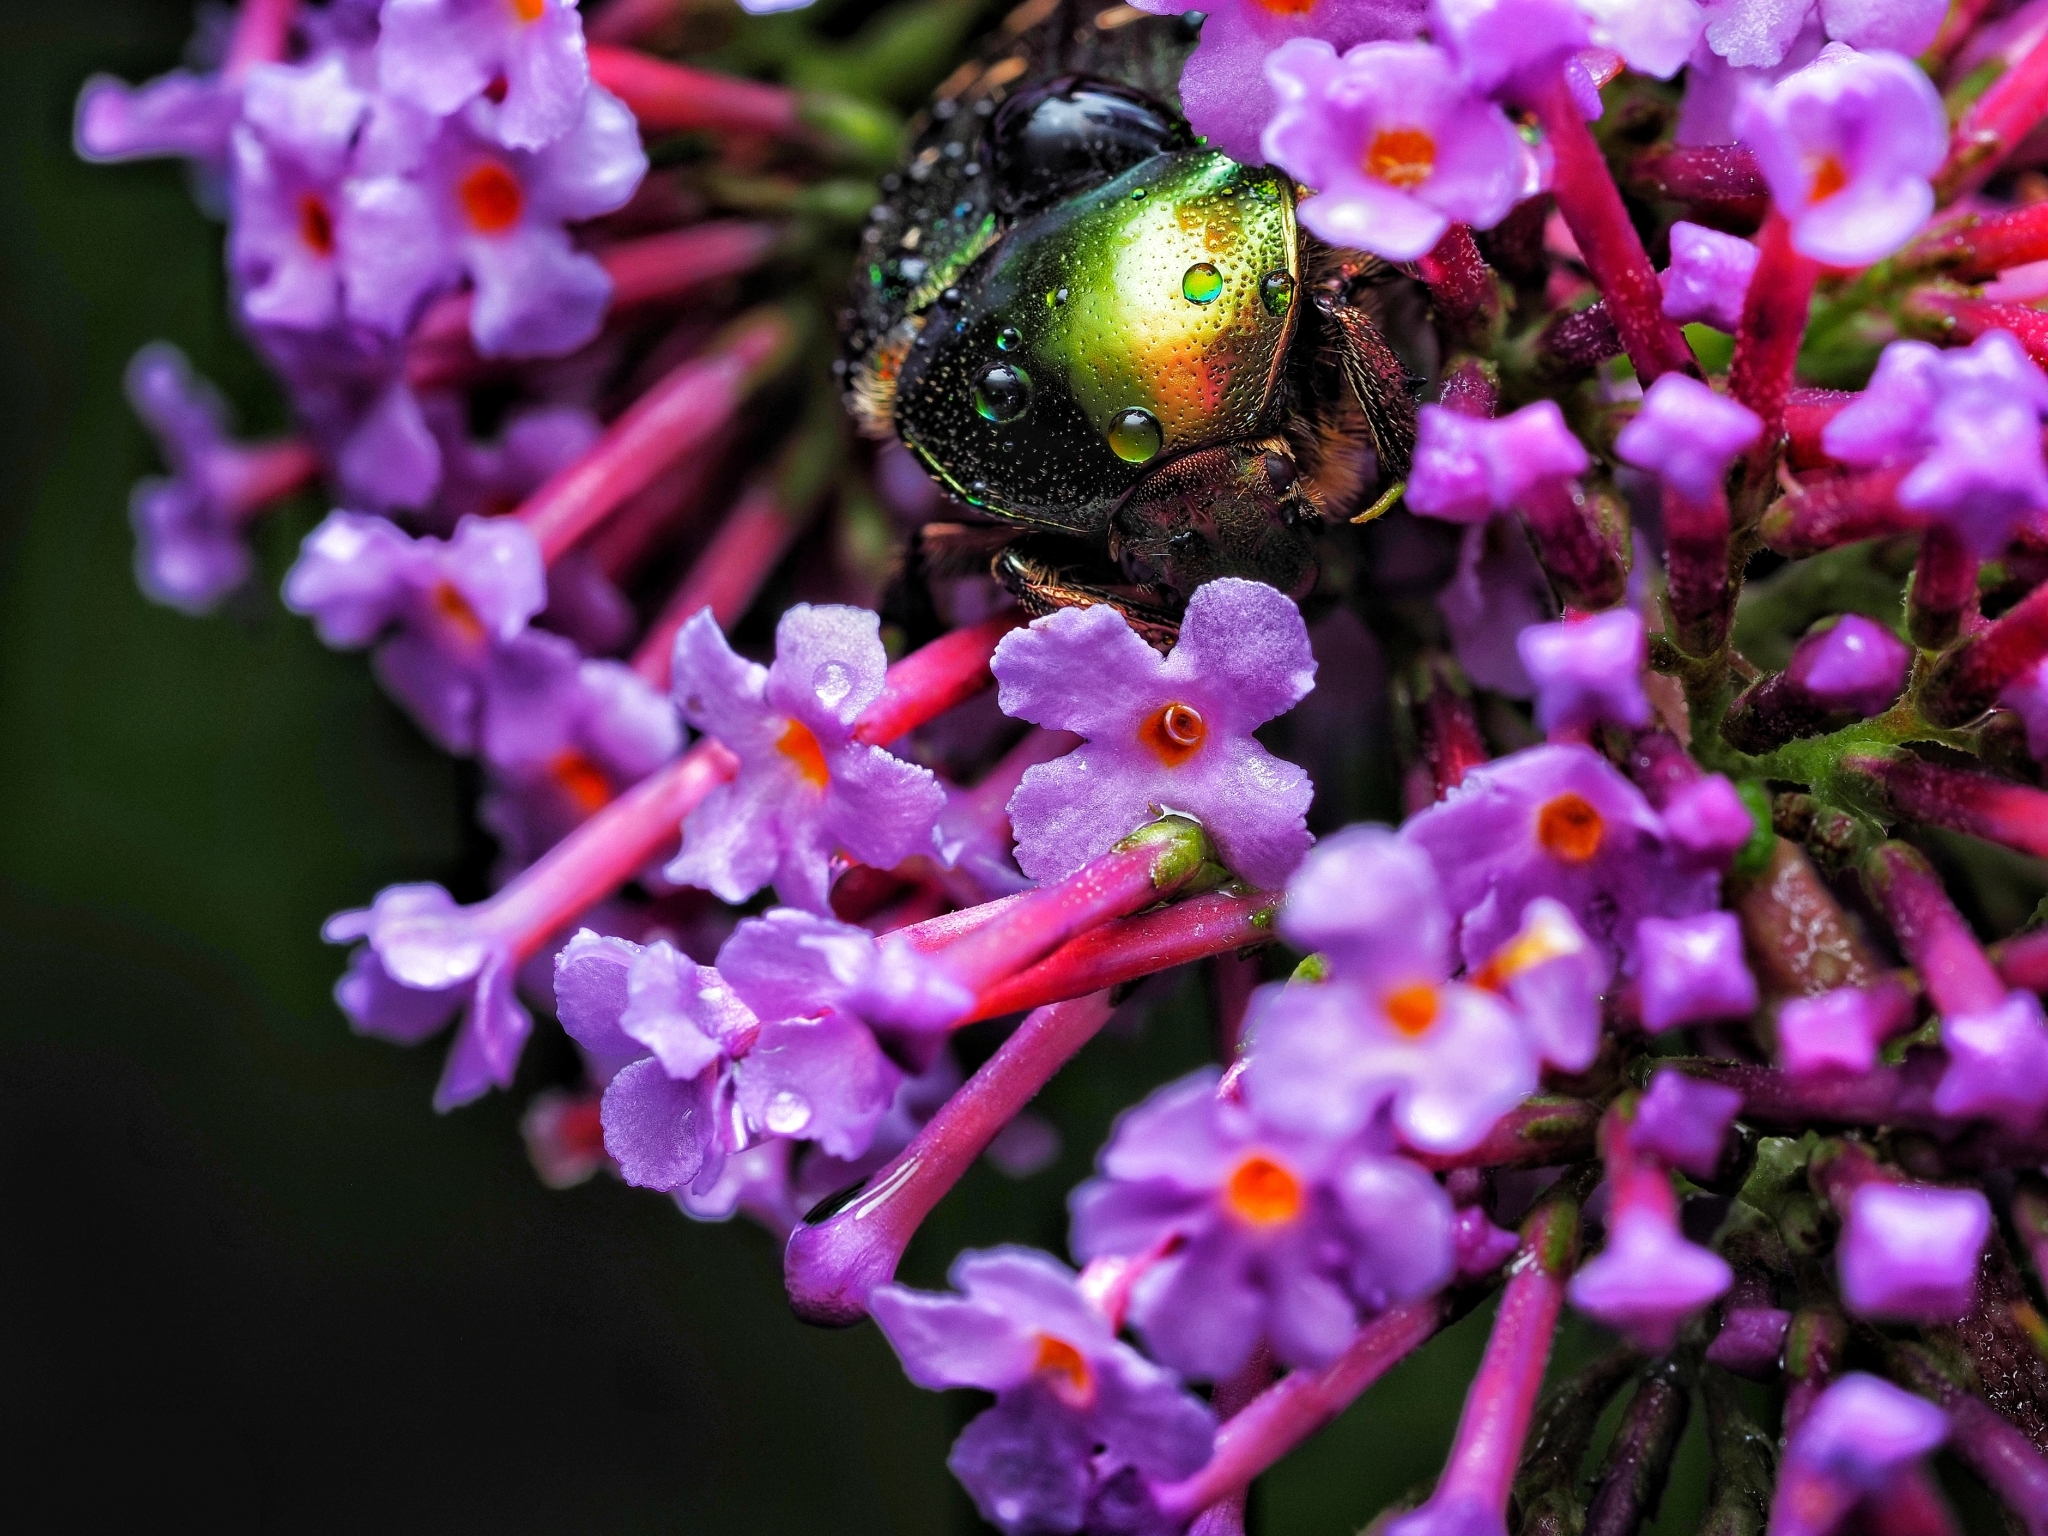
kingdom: Animalia
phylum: Arthropoda
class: Insecta
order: Coleoptera
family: Scarabaeidae
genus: Cetonia
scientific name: Cetonia aurata
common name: Rose chafer
